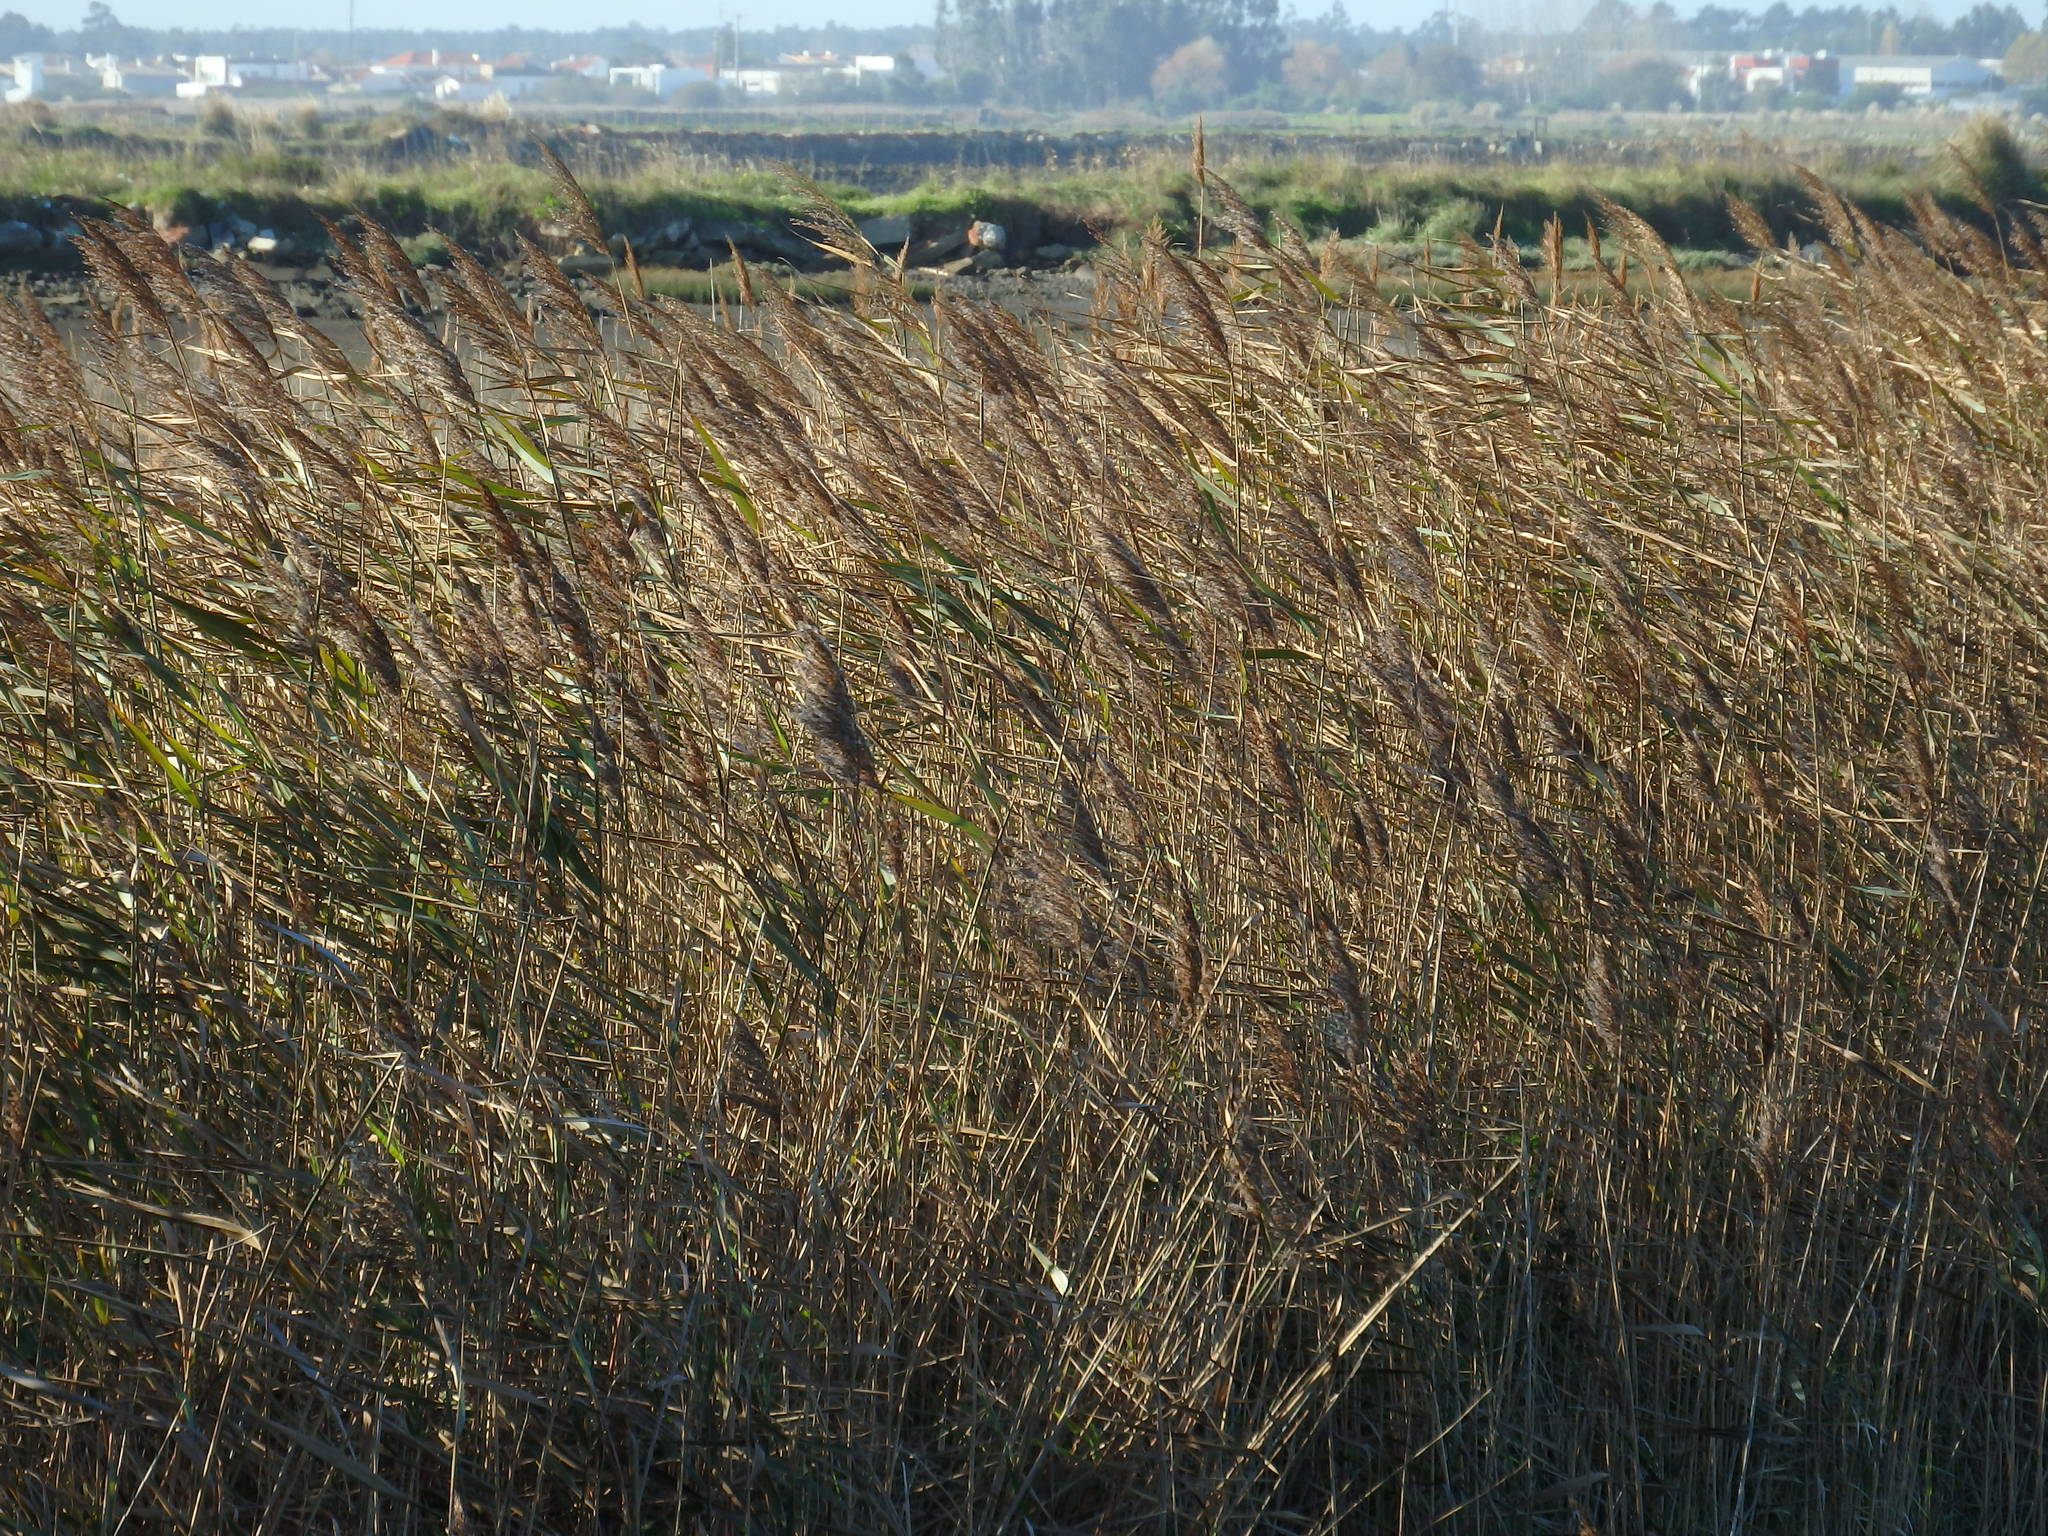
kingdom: Plantae
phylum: Tracheophyta
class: Liliopsida
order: Poales
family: Poaceae
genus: Phragmites
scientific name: Phragmites australis
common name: Common reed
